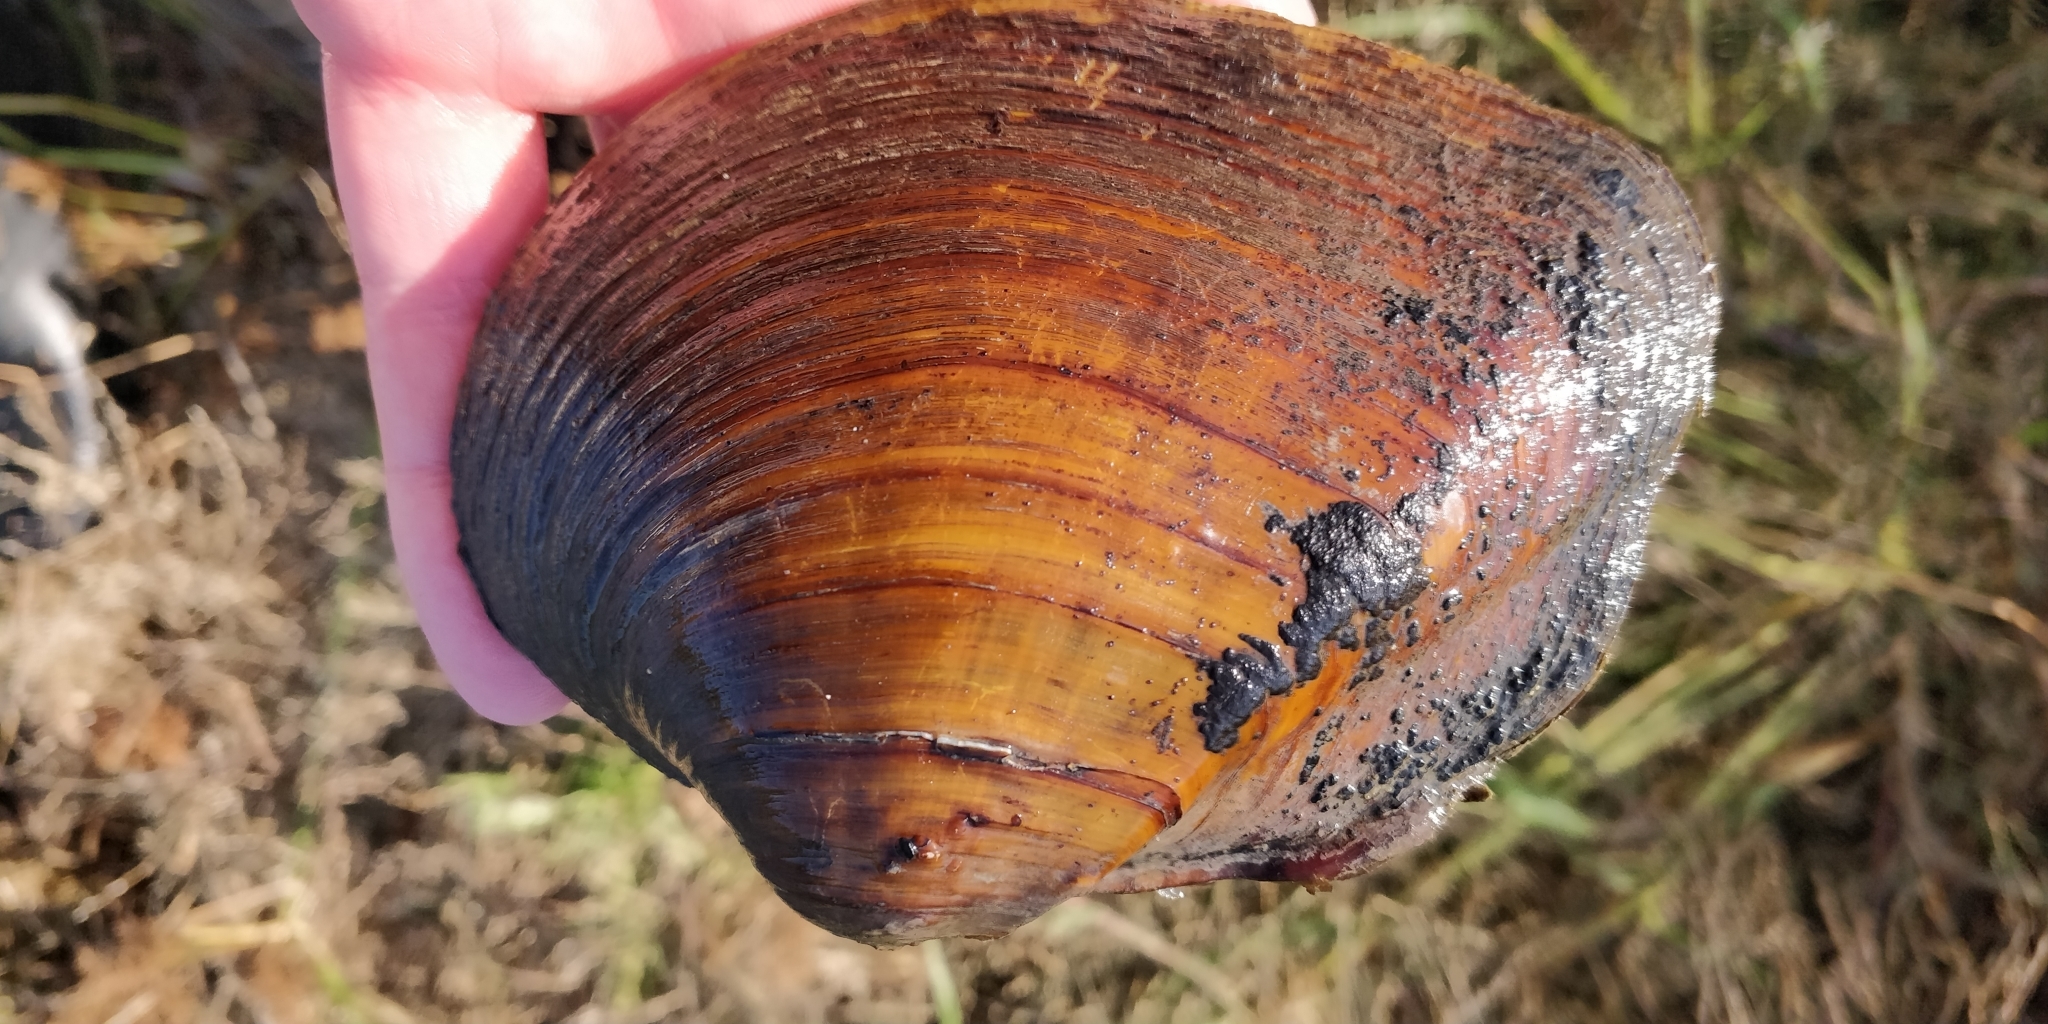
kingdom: Animalia
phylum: Mollusca
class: Bivalvia
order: Unionida
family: Unionidae
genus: Quadrula
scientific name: Quadrula quadrula
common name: Mapleleaf
